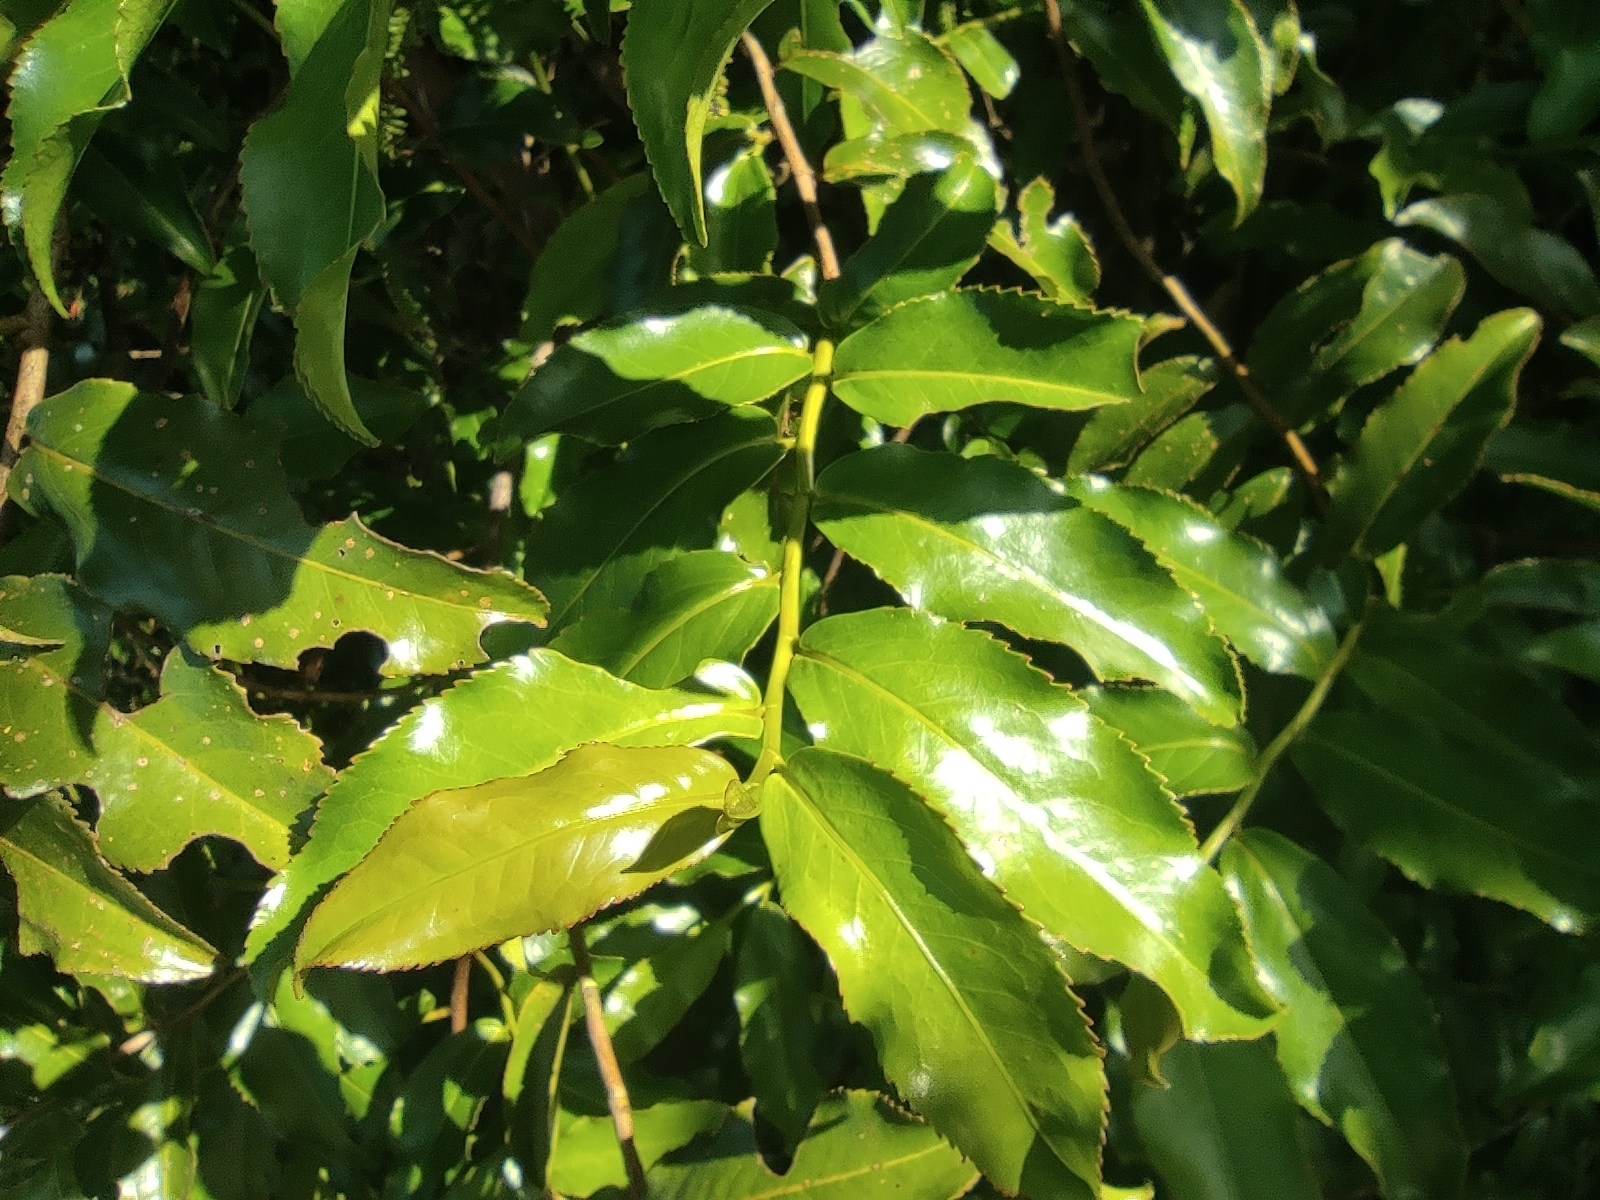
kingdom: Plantae
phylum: Tracheophyta
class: Magnoliopsida
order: Crossosomatales
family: Aphloiaceae
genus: Aphloia
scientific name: Aphloia theiformis
